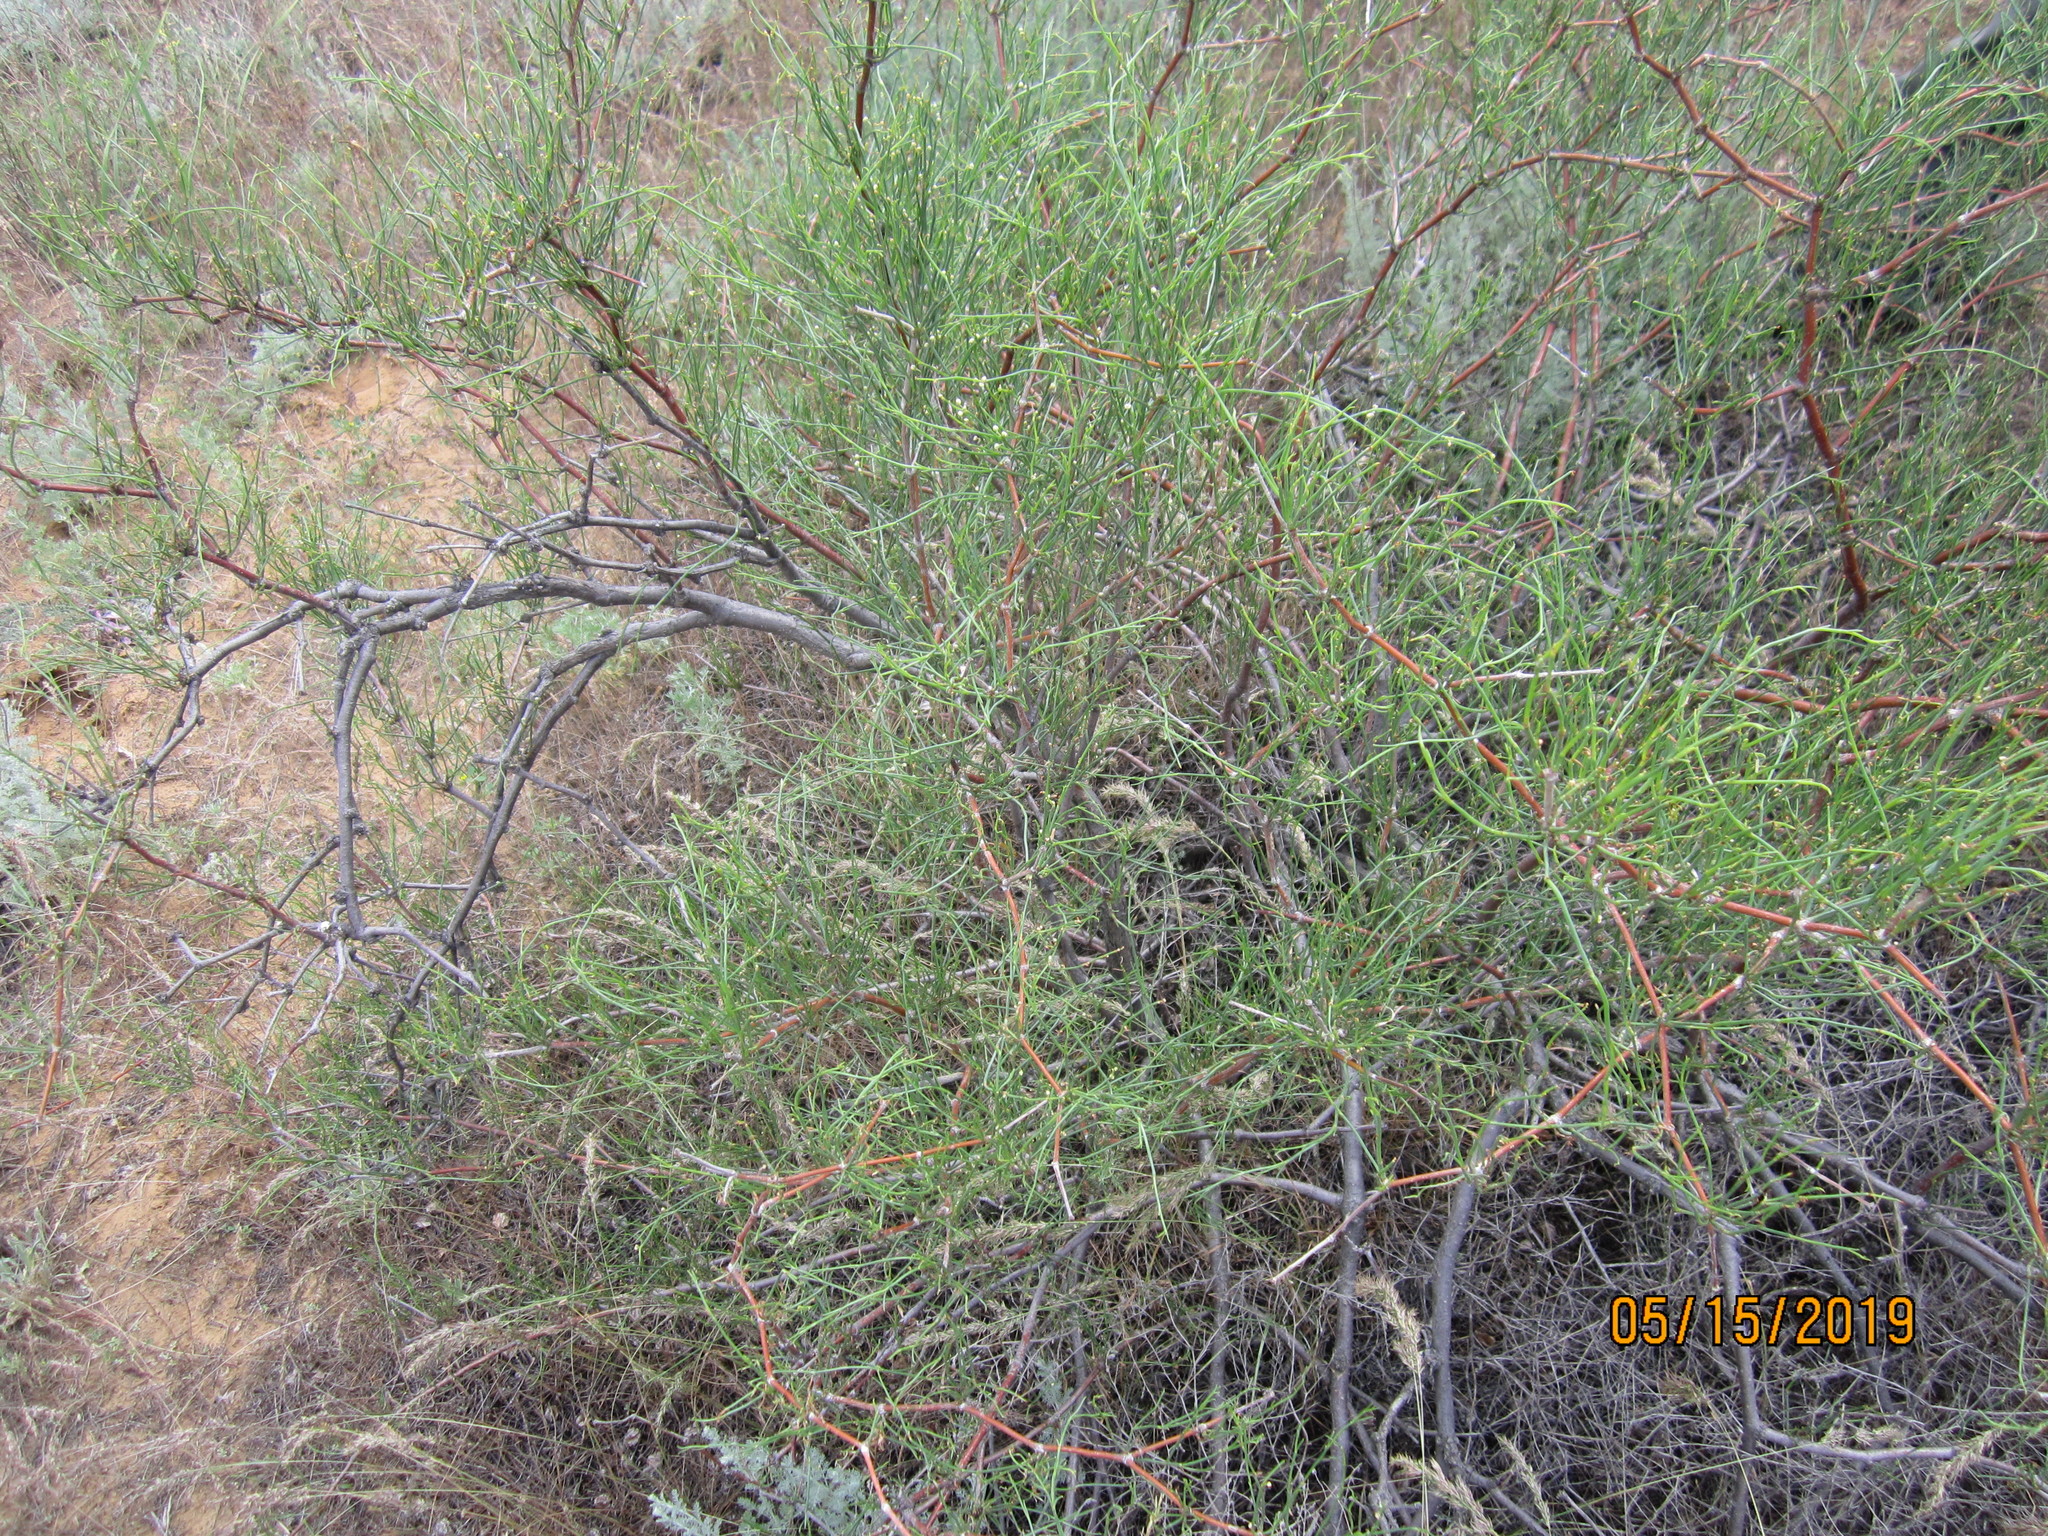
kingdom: Plantae
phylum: Tracheophyta
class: Magnoliopsida
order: Caryophyllales
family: Polygonaceae
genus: Calligonum
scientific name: Calligonum aphyllum
